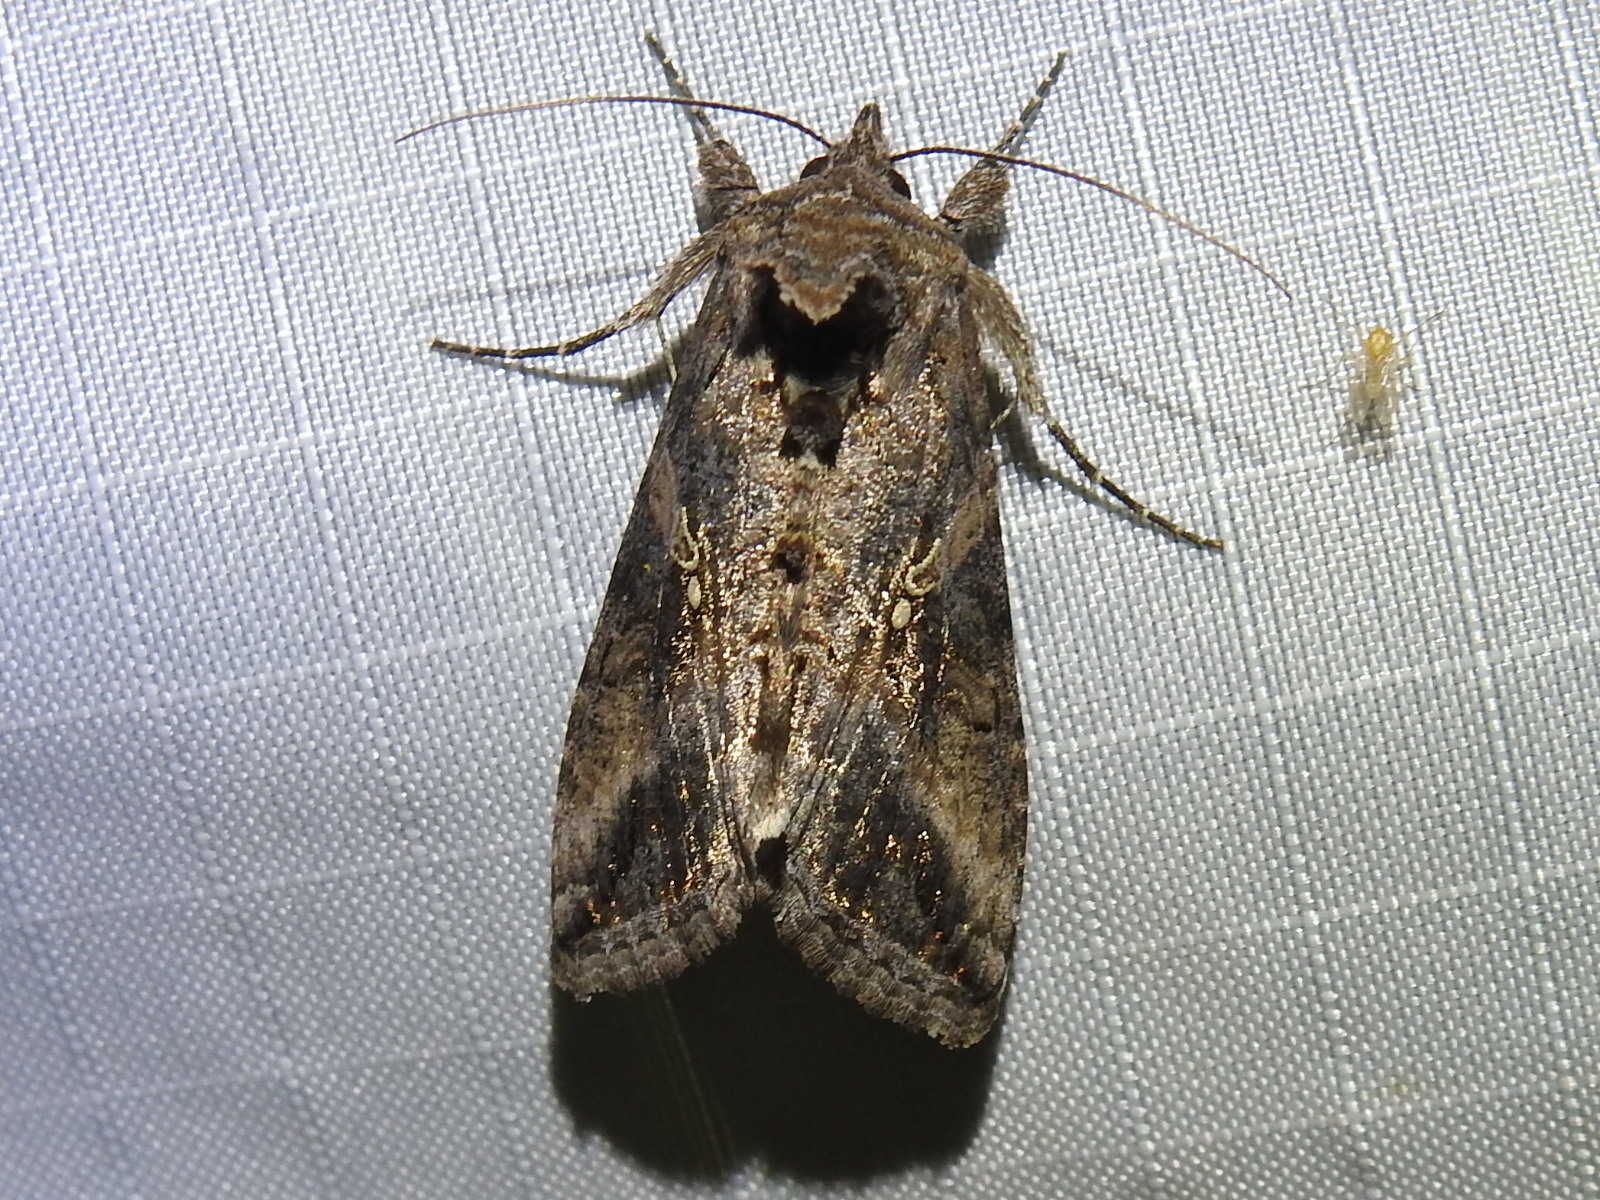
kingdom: Animalia
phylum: Arthropoda
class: Insecta
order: Lepidoptera
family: Noctuidae
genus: Rachiplusia
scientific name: Rachiplusia ou
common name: Gray looper moth
